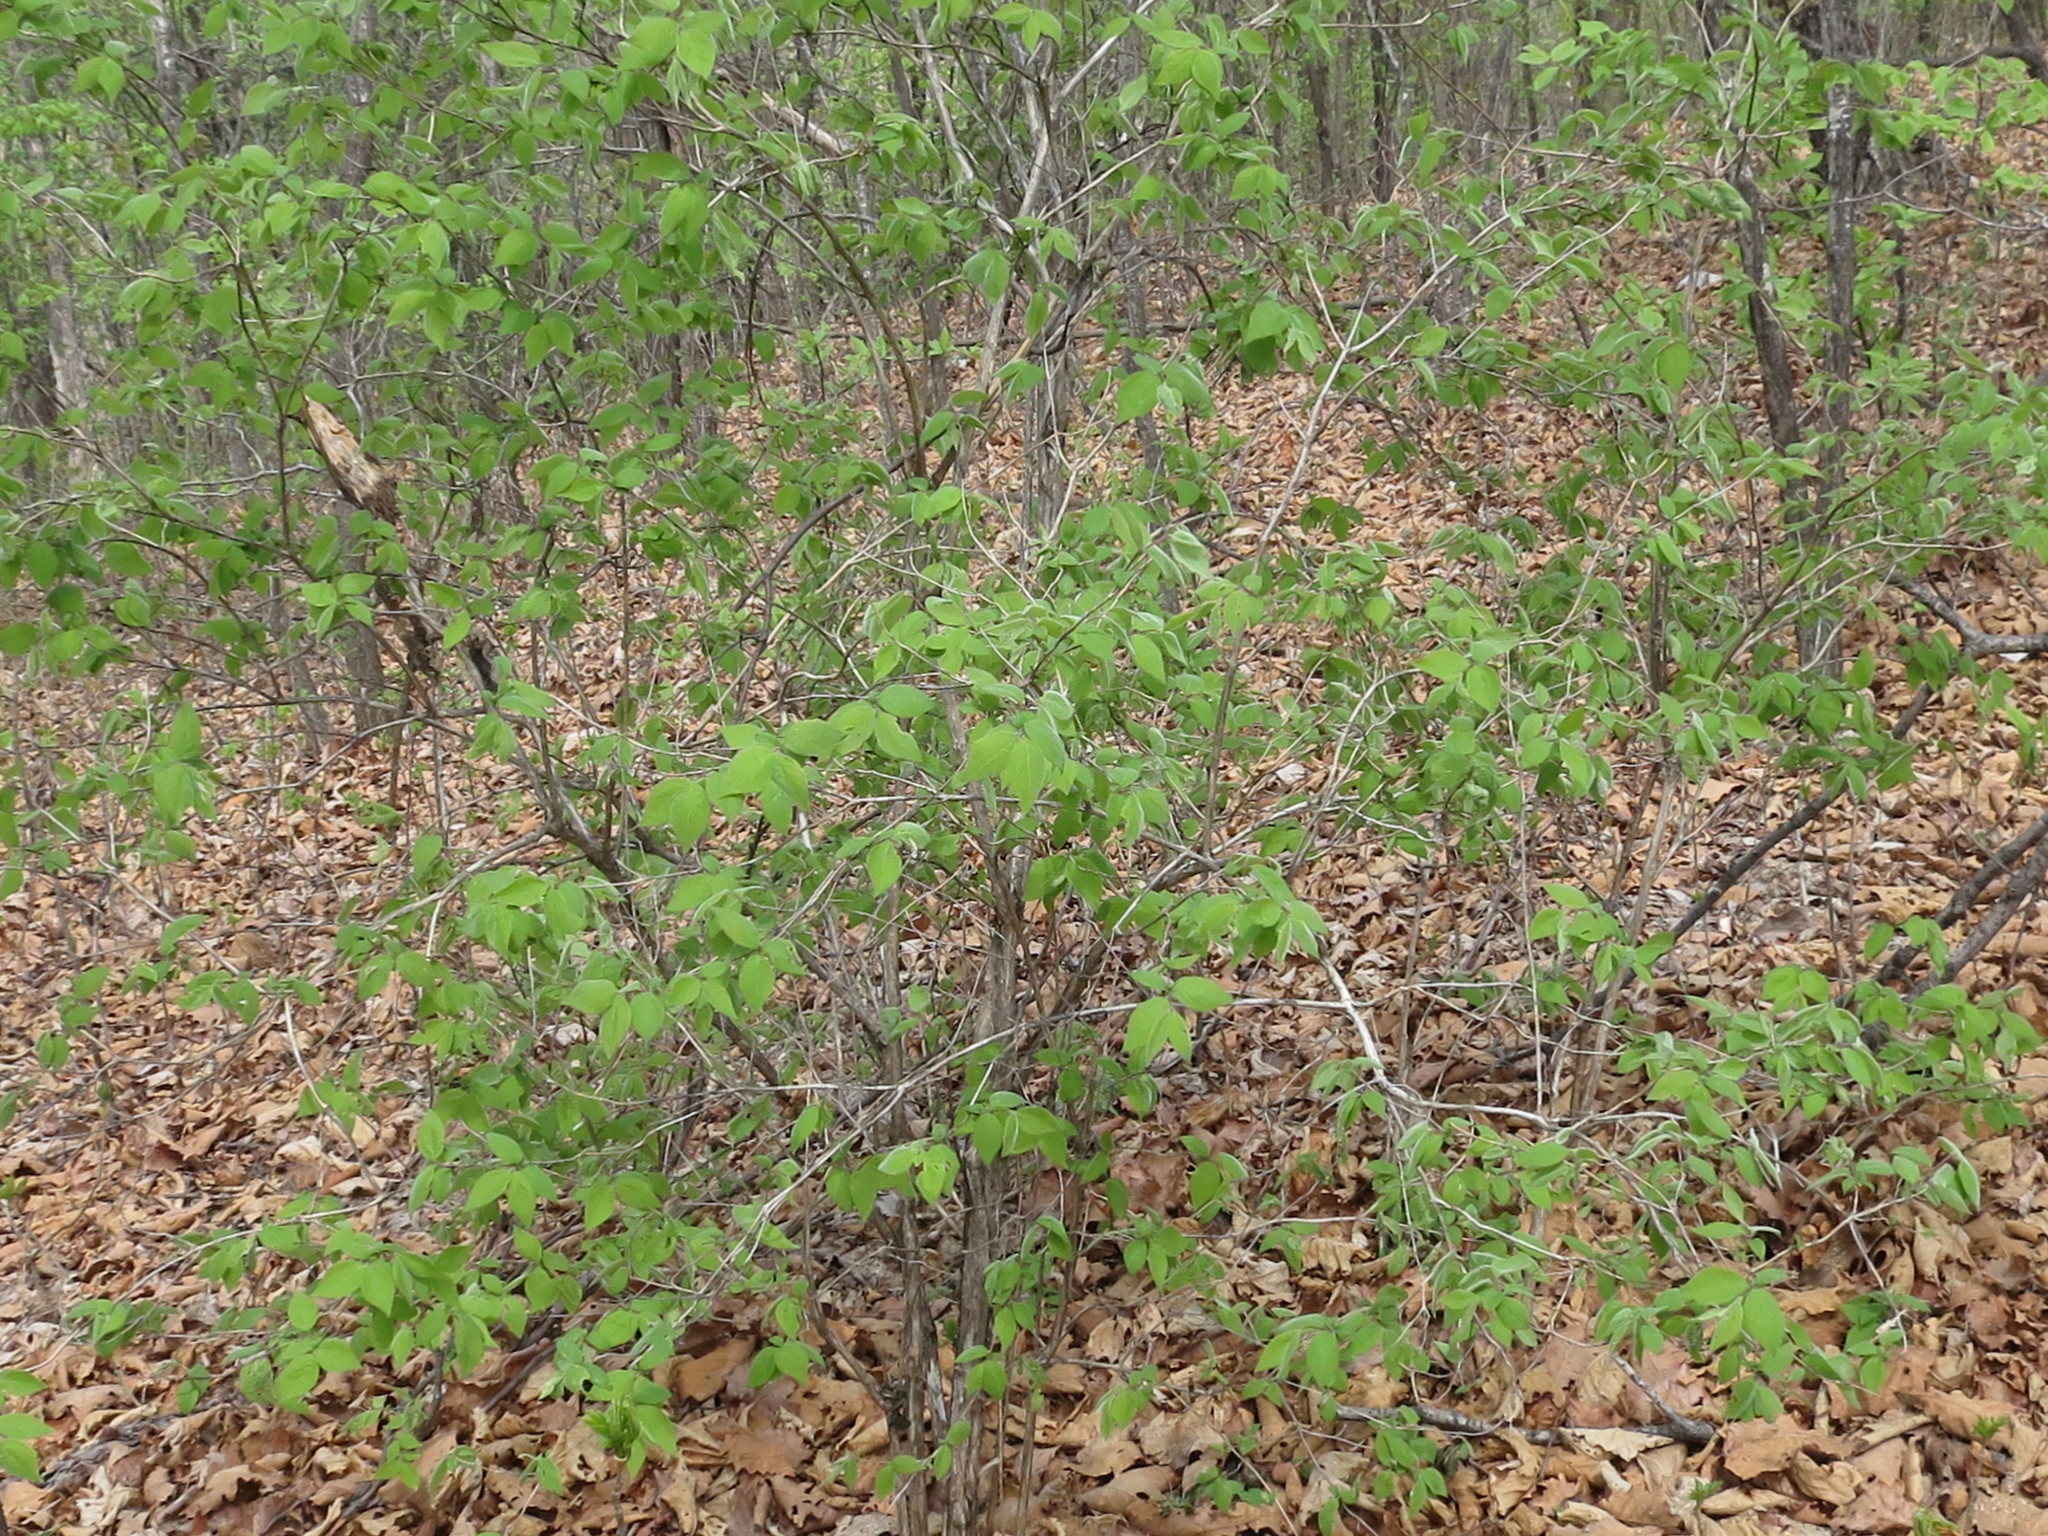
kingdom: Plantae
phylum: Tracheophyta
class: Magnoliopsida
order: Dipsacales
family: Caprifoliaceae
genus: Lonicera
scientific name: Lonicera praeflorens
